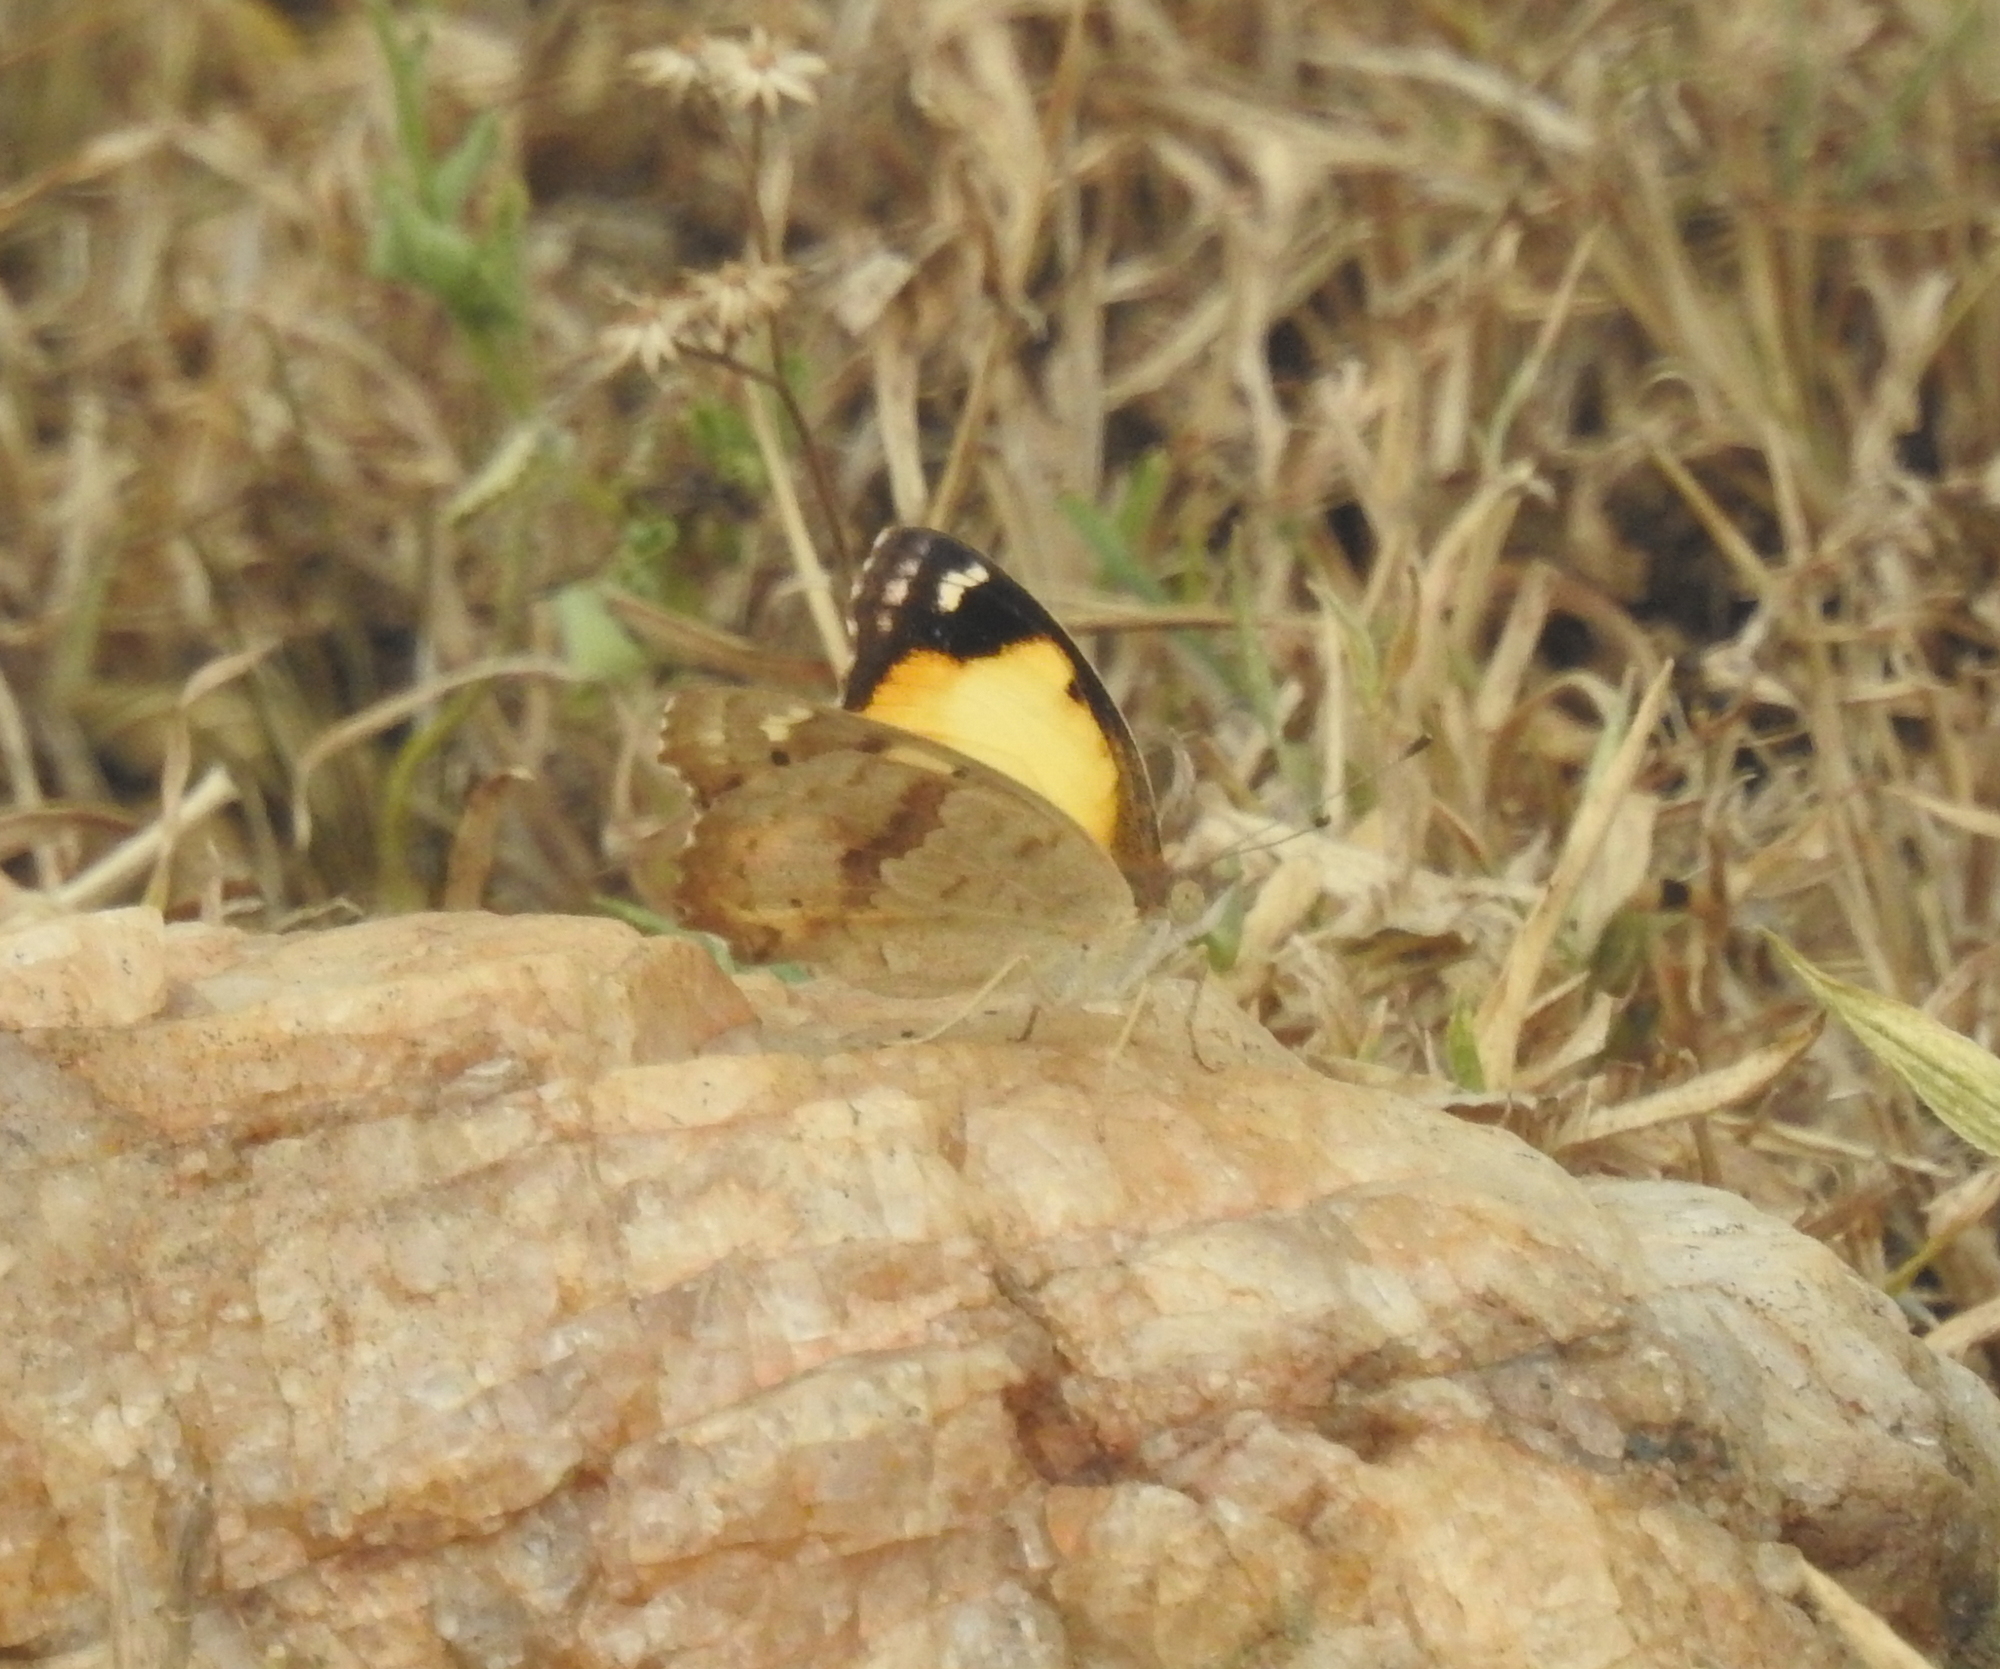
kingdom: Animalia
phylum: Arthropoda
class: Insecta
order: Lepidoptera
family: Nymphalidae
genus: Junonia
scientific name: Junonia hierta
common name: Yellow pansy
